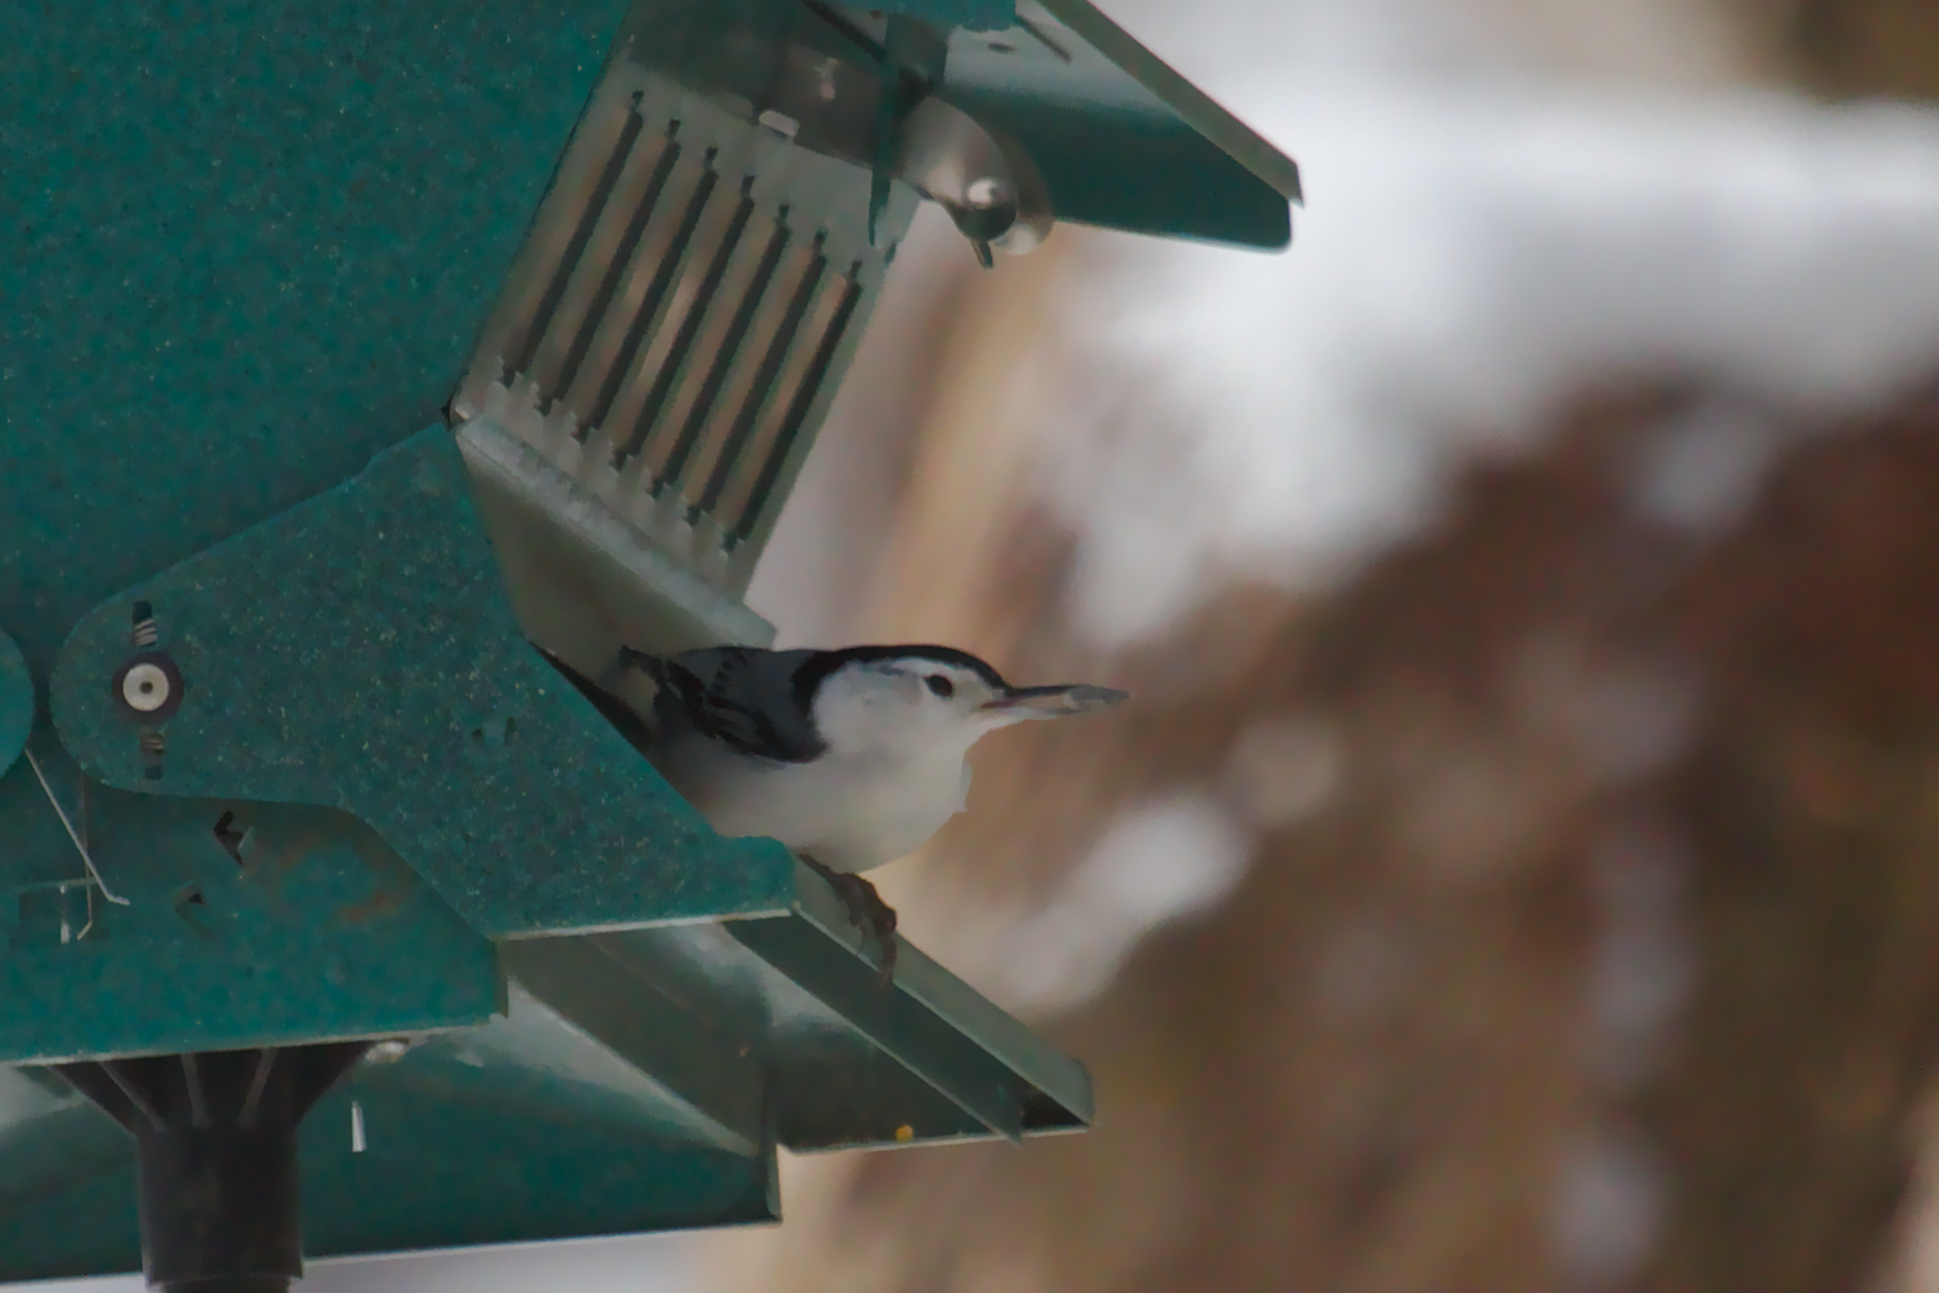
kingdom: Animalia
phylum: Chordata
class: Aves
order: Passeriformes
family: Sittidae
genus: Sitta
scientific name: Sitta carolinensis
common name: White-breasted nuthatch
